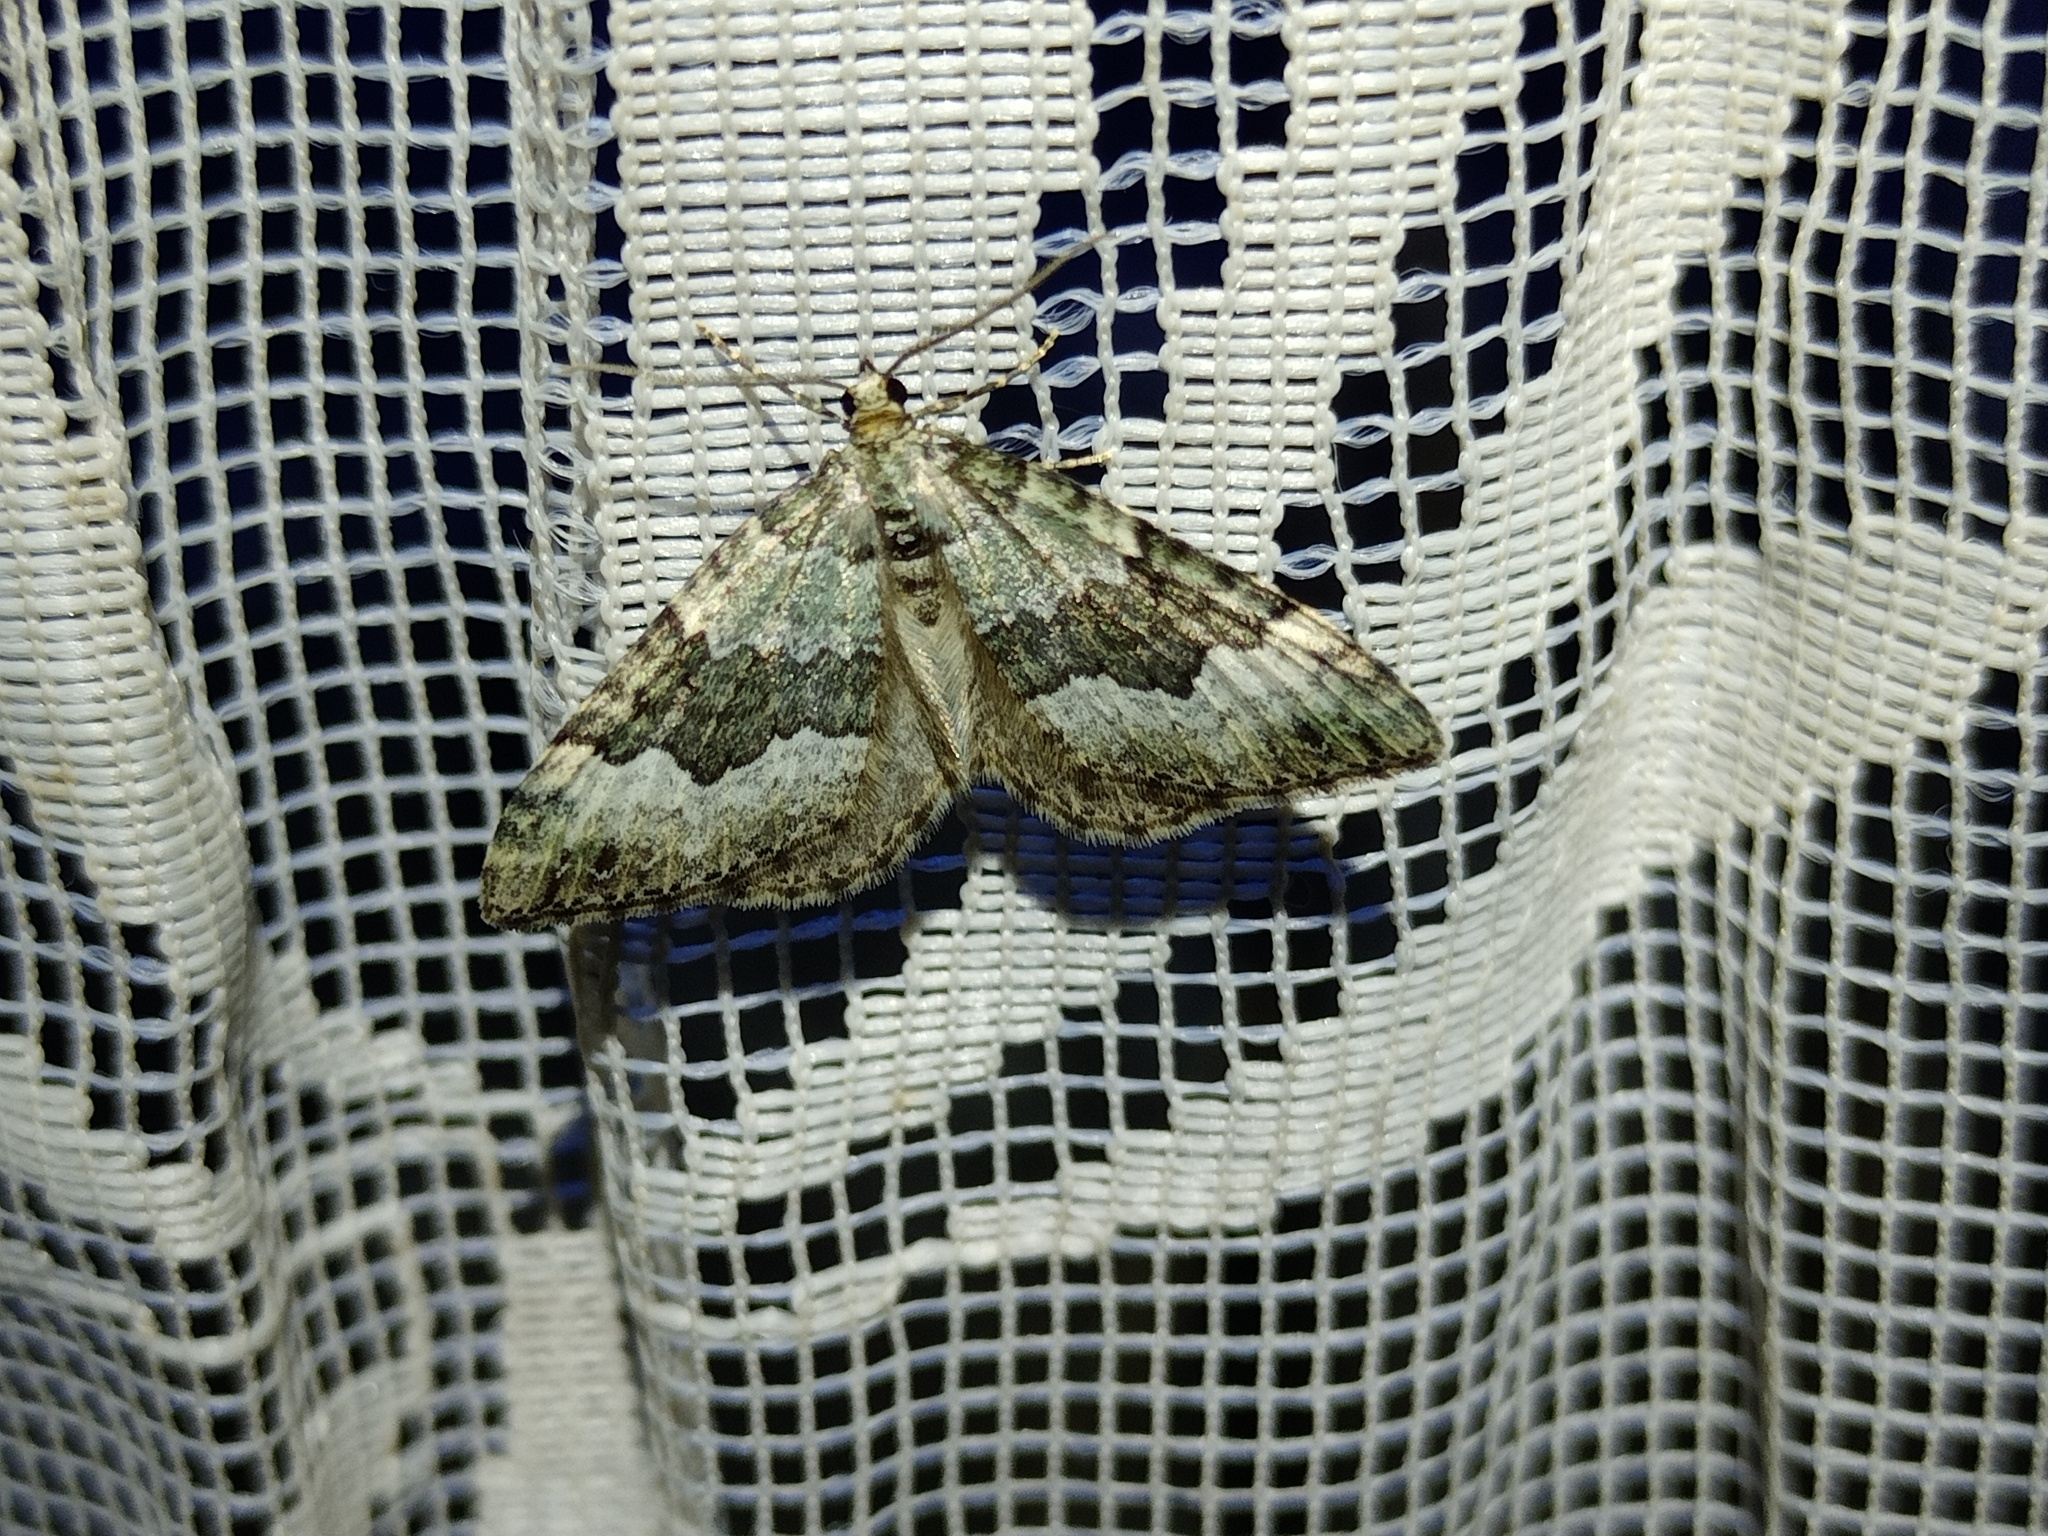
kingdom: Animalia
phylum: Arthropoda
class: Insecta
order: Lepidoptera
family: Geometridae
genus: Colostygia
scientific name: Colostygia aptata
